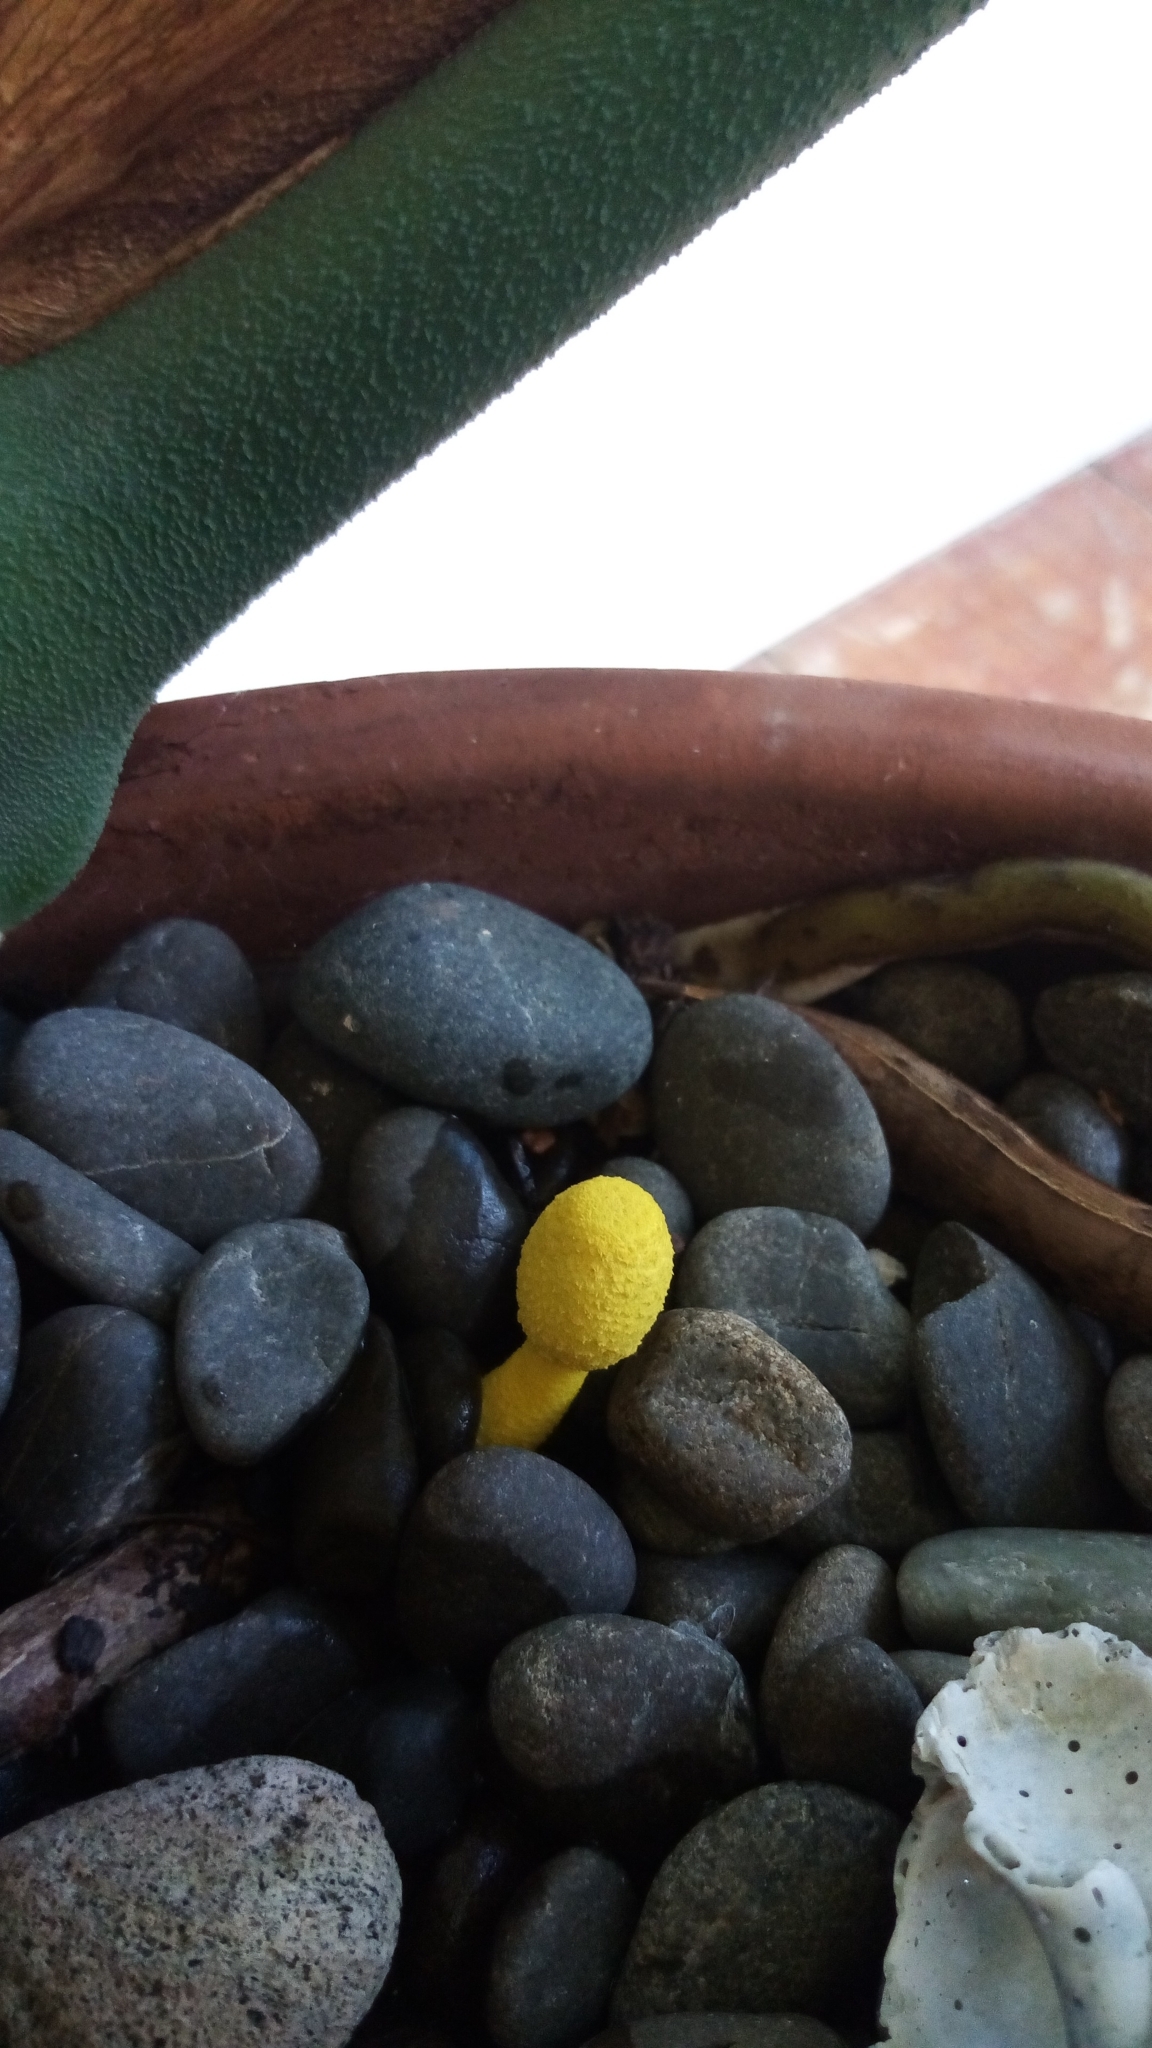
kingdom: Fungi
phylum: Basidiomycota
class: Agaricomycetes
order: Agaricales
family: Agaricaceae
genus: Leucocoprinus
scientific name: Leucocoprinus birnbaumii
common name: Plantpot dapperling
